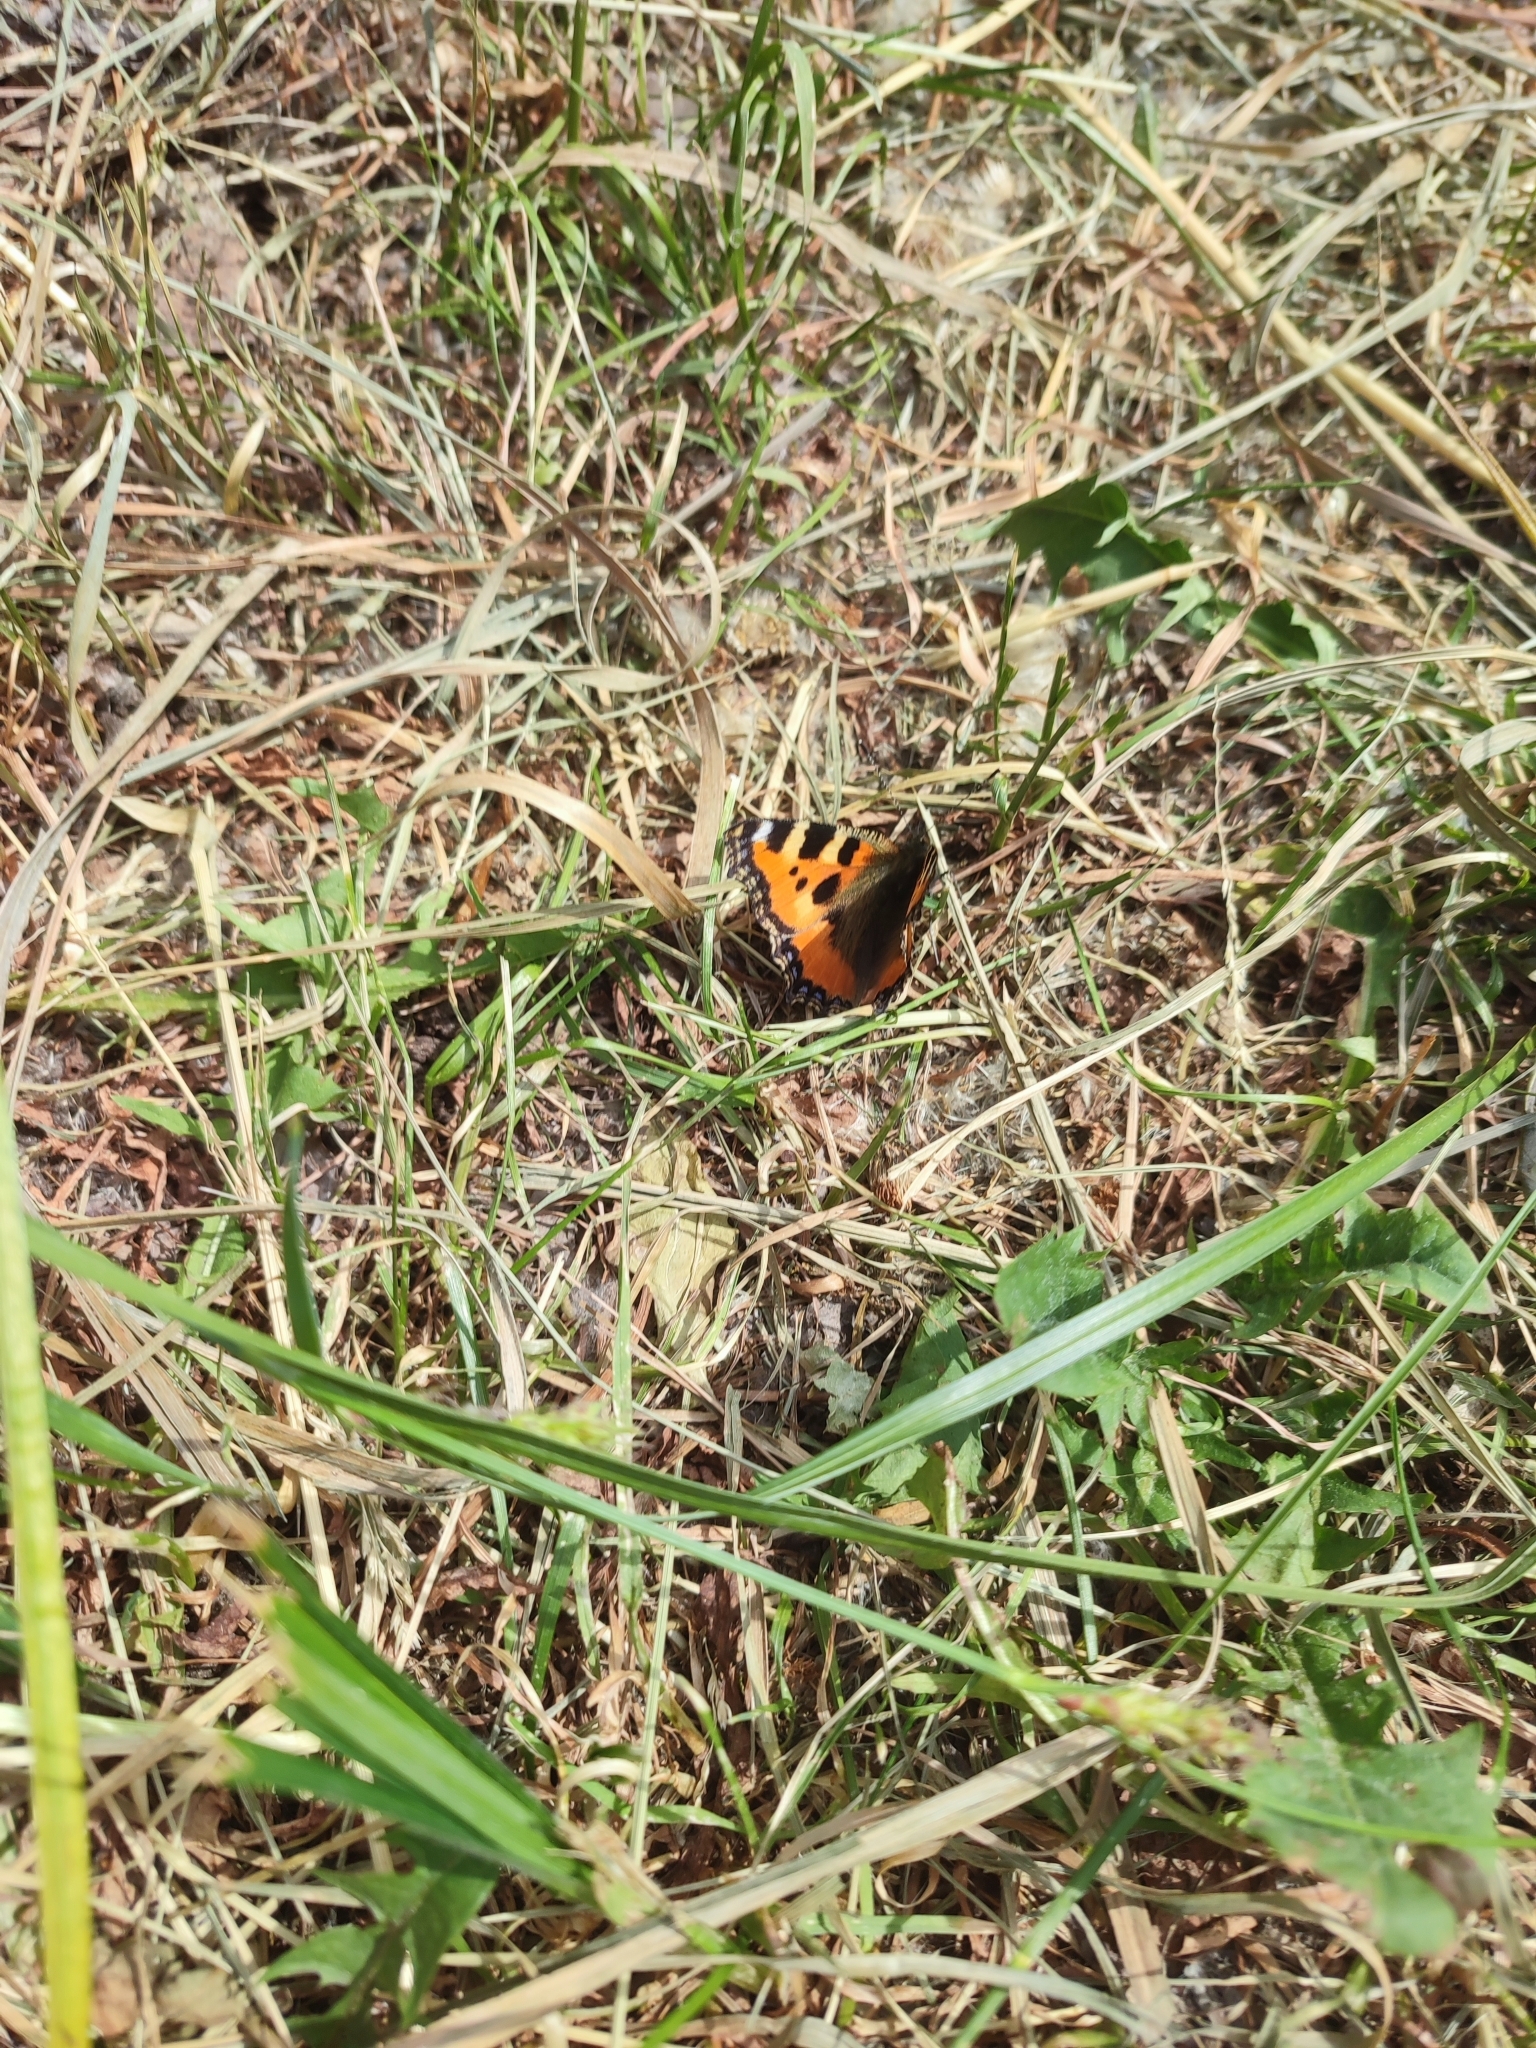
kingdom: Animalia
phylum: Arthropoda
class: Insecta
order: Lepidoptera
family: Nymphalidae
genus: Aglais
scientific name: Aglais urticae
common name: Small tortoiseshell
